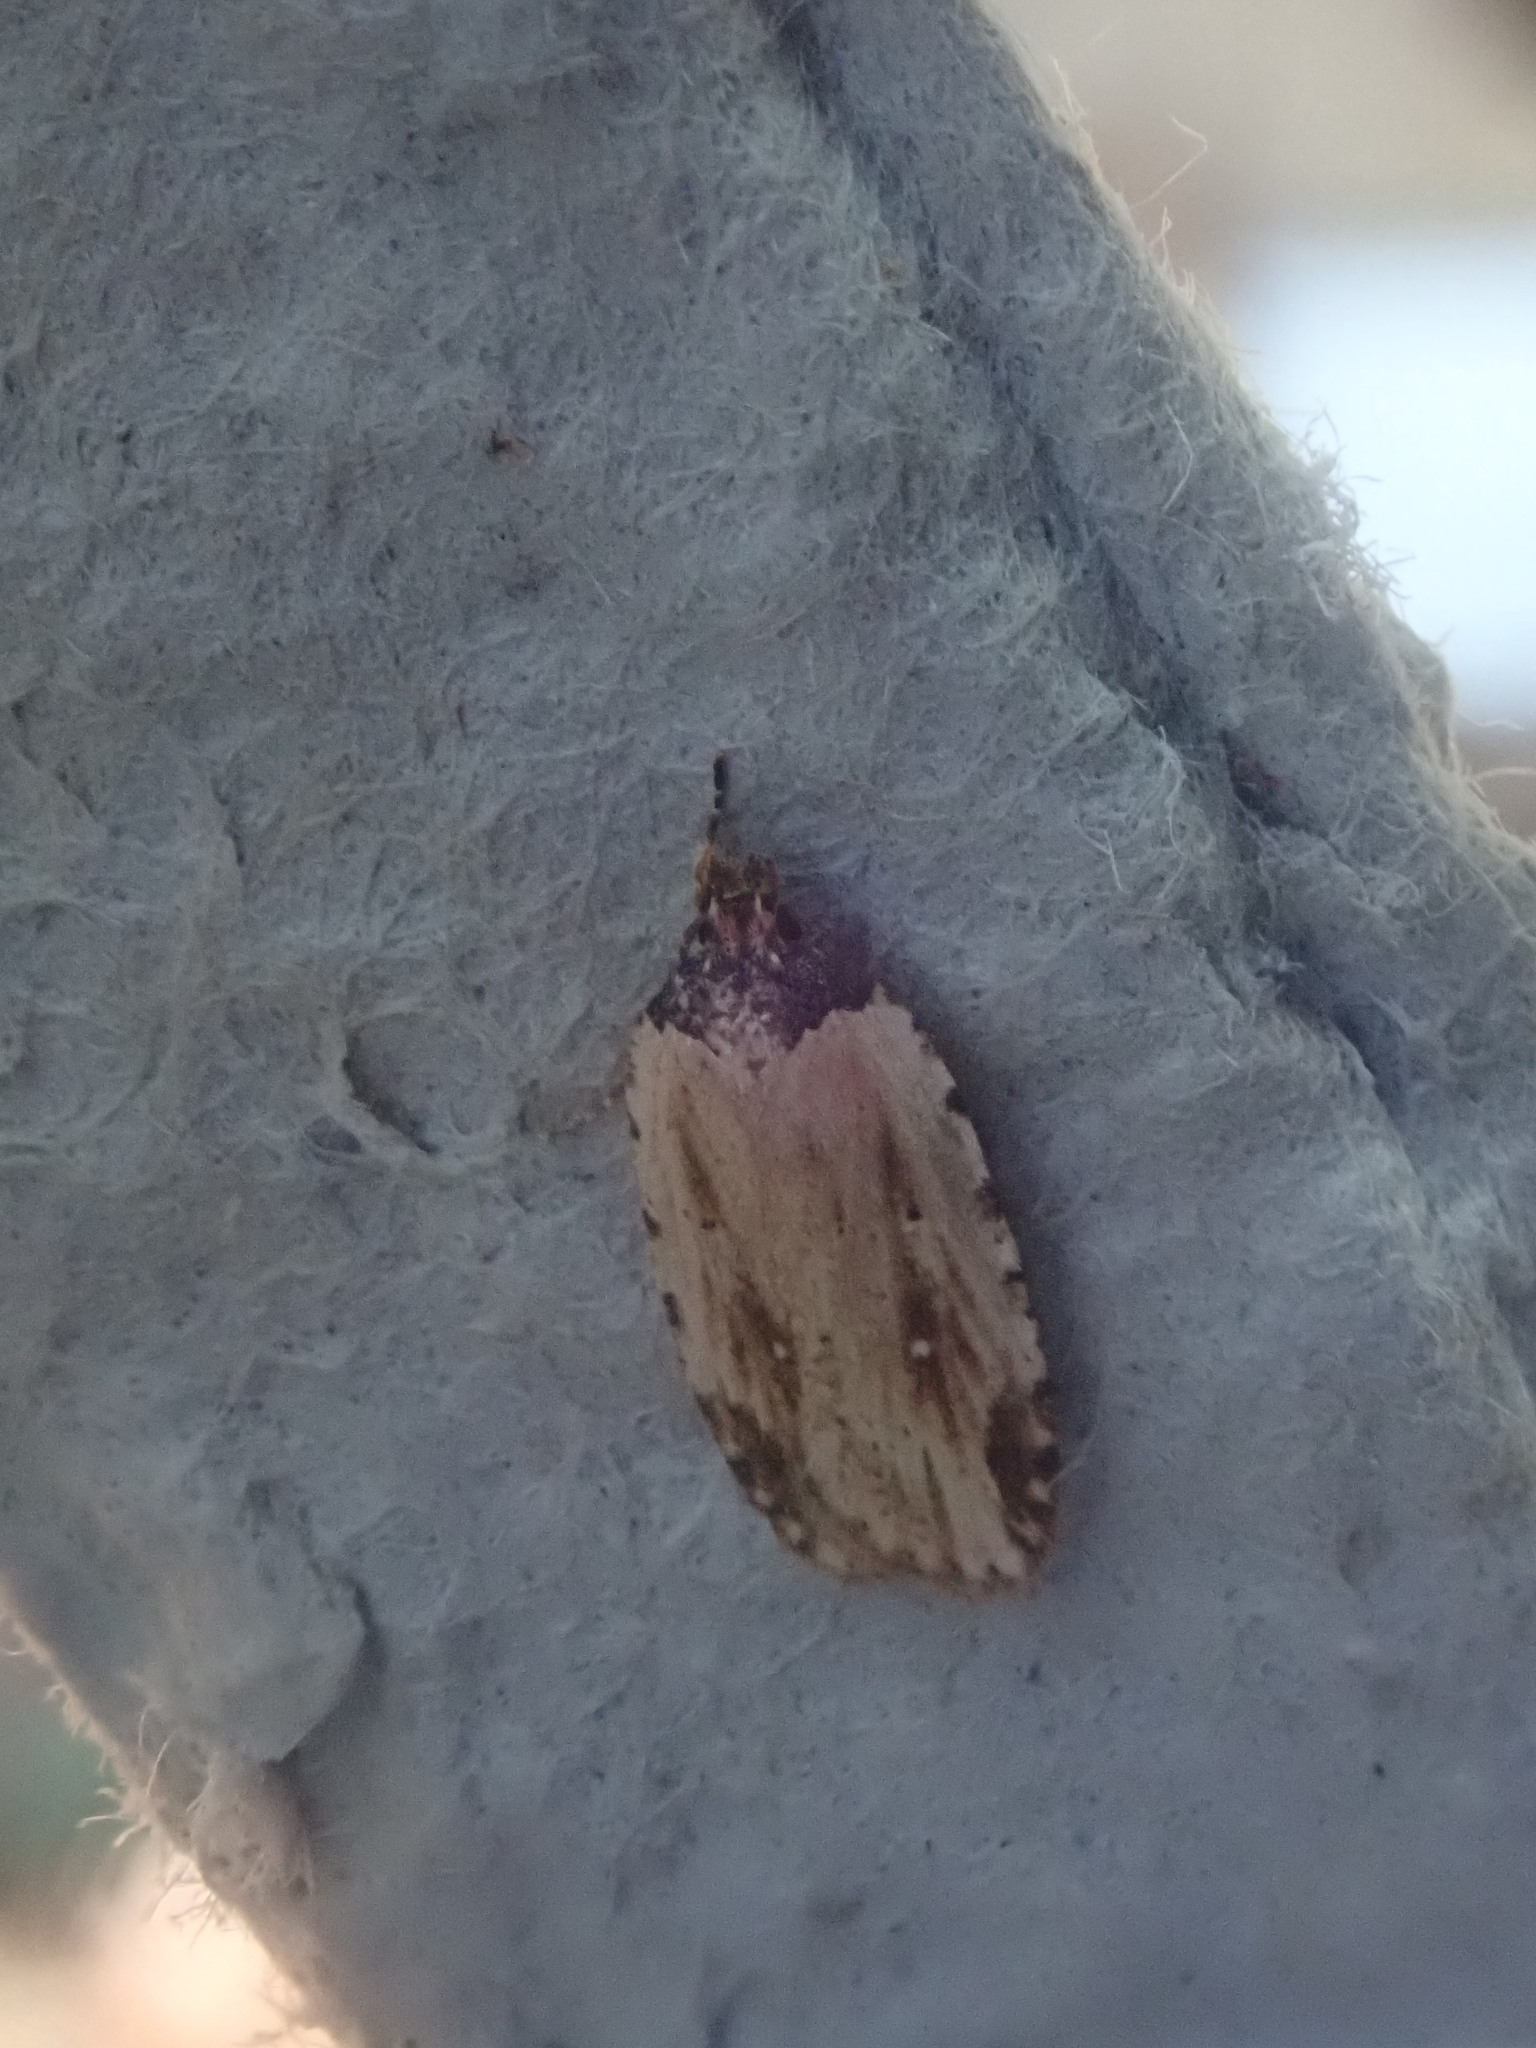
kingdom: Animalia
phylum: Arthropoda
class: Insecta
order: Lepidoptera
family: Depressariidae
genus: Agonopterix
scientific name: Agonopterix atrodorsella
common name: Beggartick leaffolder
